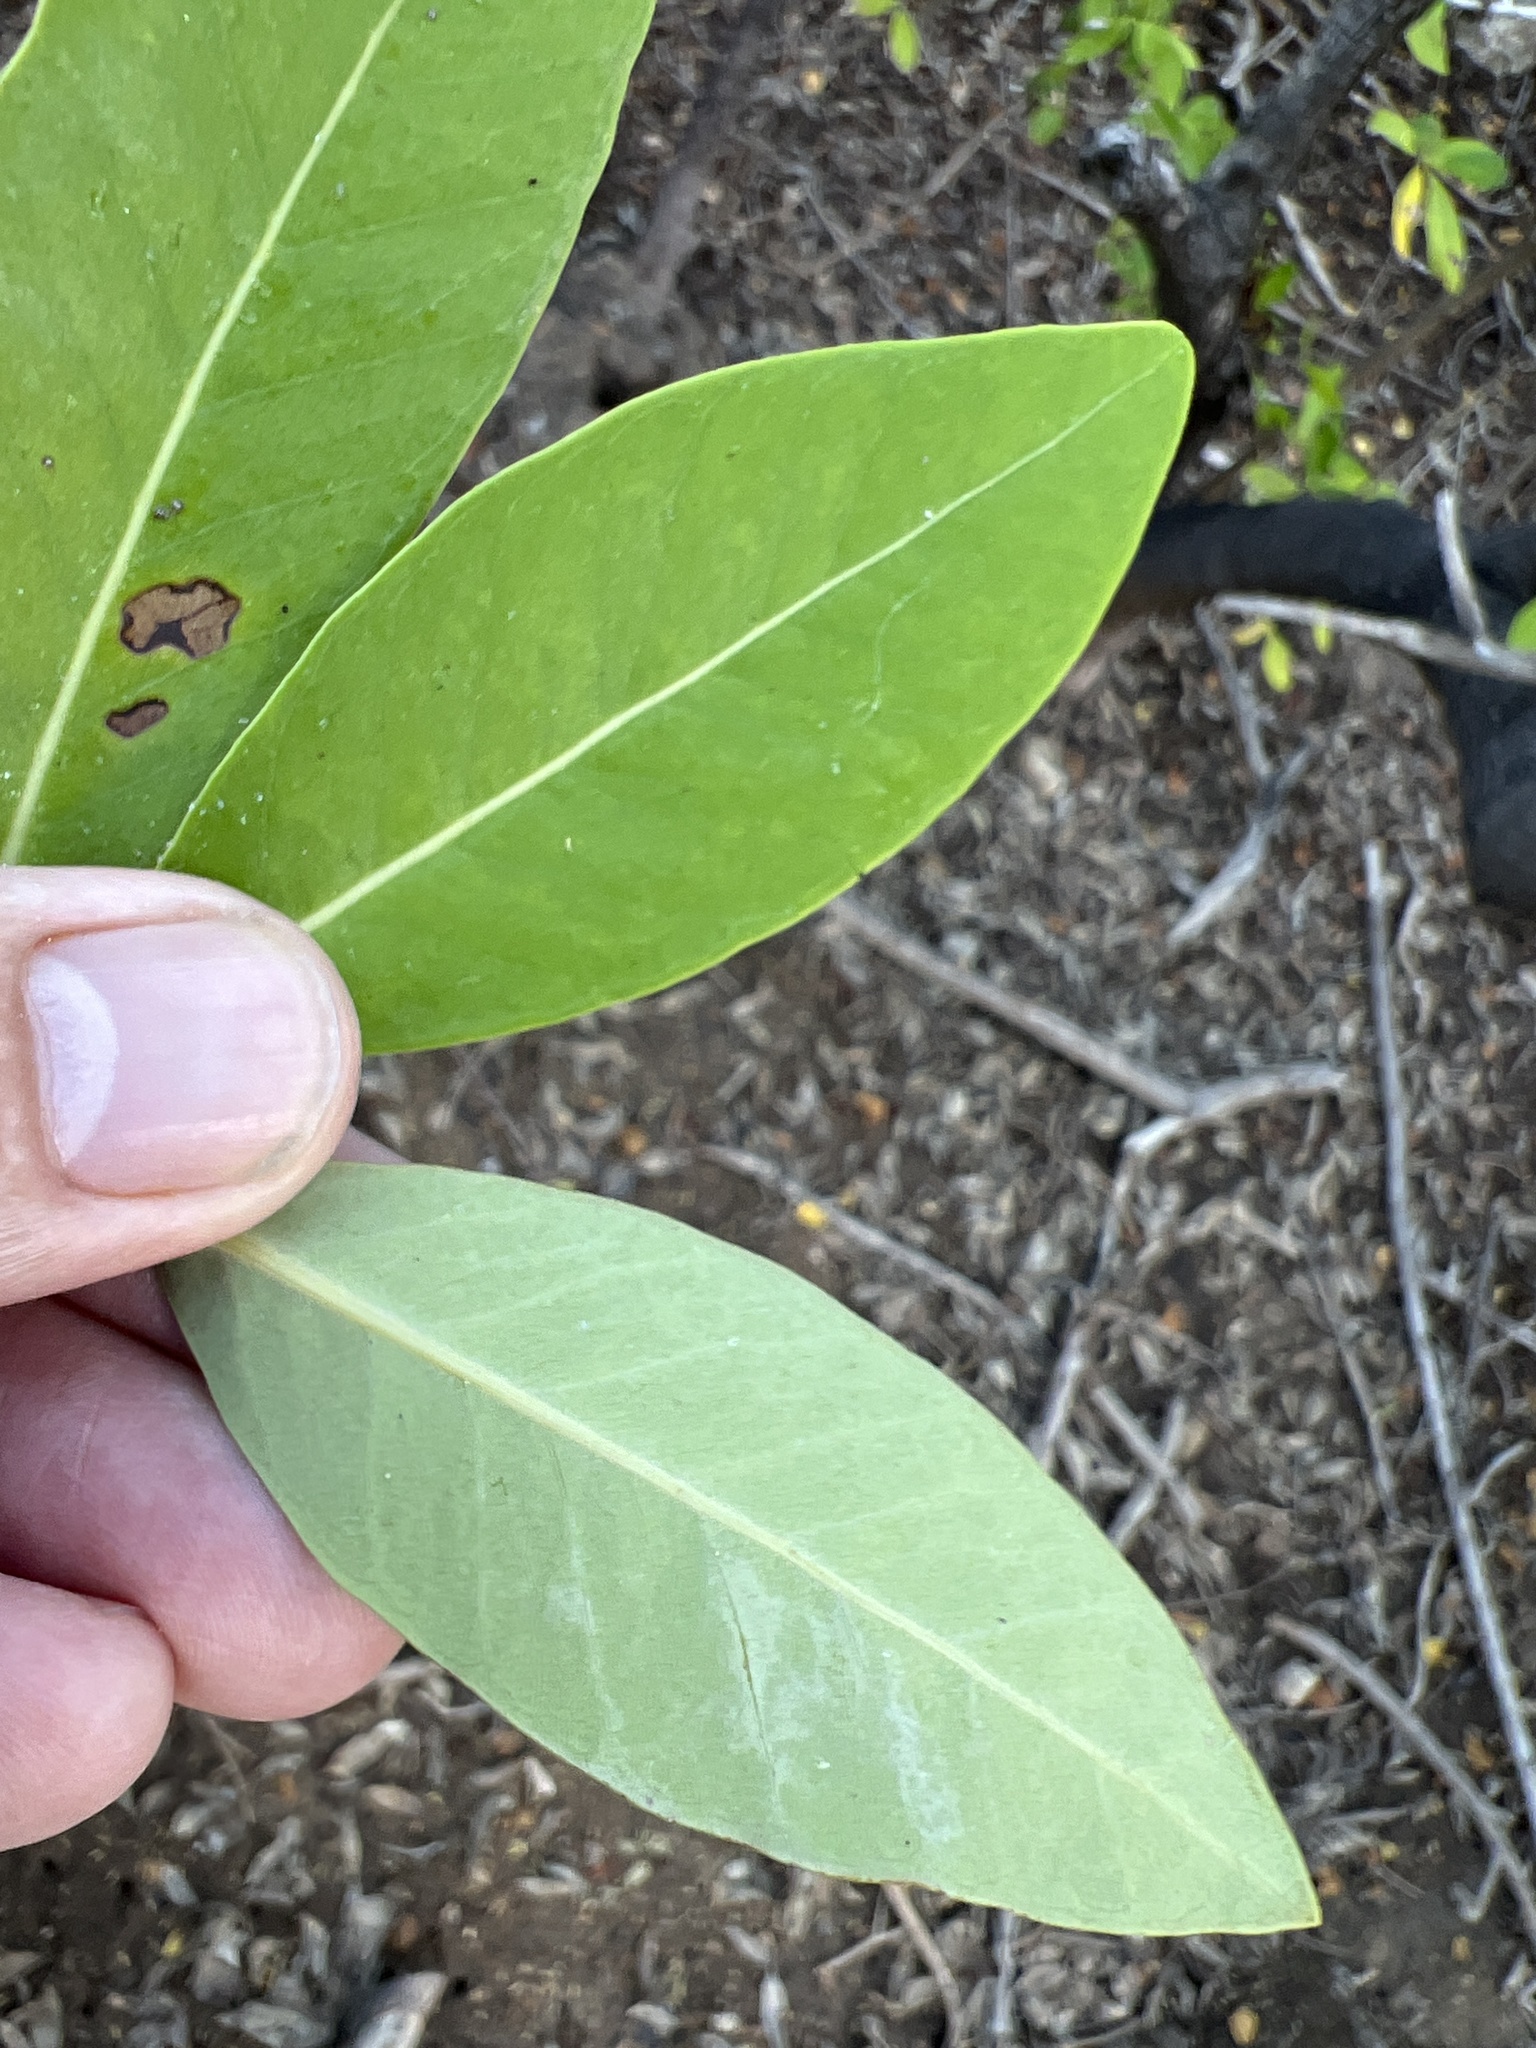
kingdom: Plantae
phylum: Tracheophyta
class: Magnoliopsida
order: Lamiales
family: Acanthaceae
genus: Avicennia
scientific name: Avicennia germinans
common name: Black mangrove
